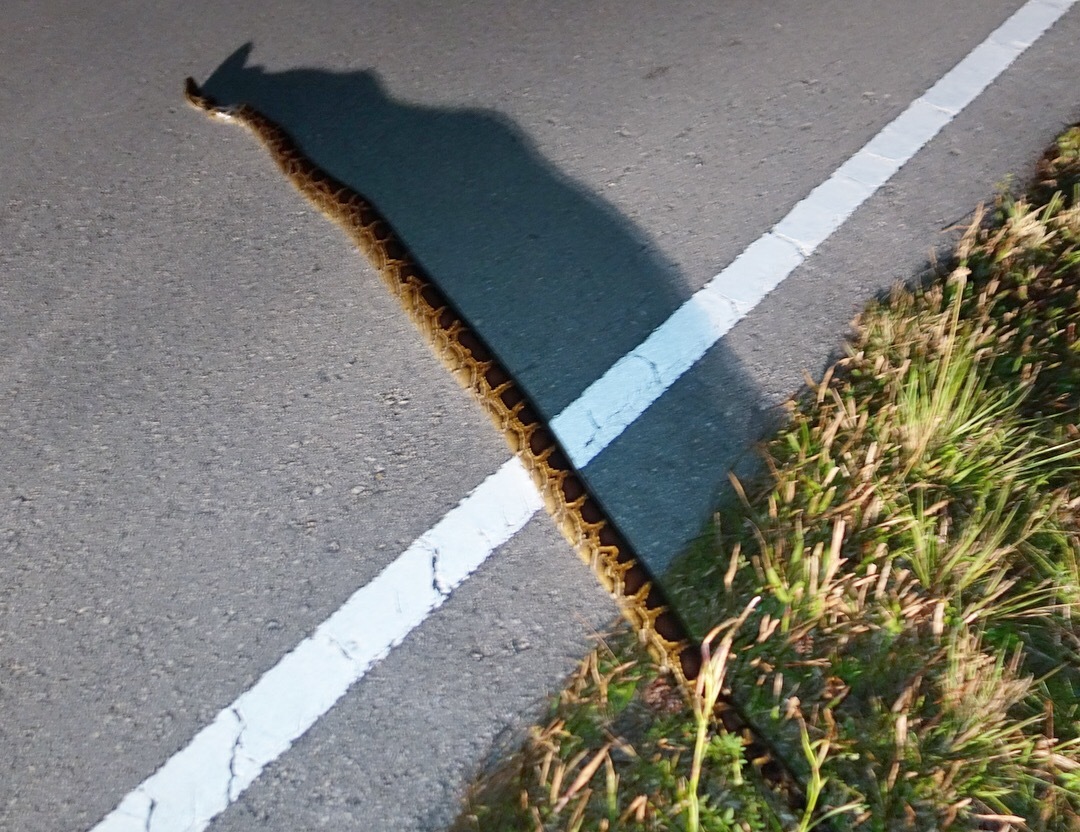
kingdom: Animalia
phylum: Chordata
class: Squamata
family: Pythonidae
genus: Python
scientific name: Python bivittatus
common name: Burmese python
